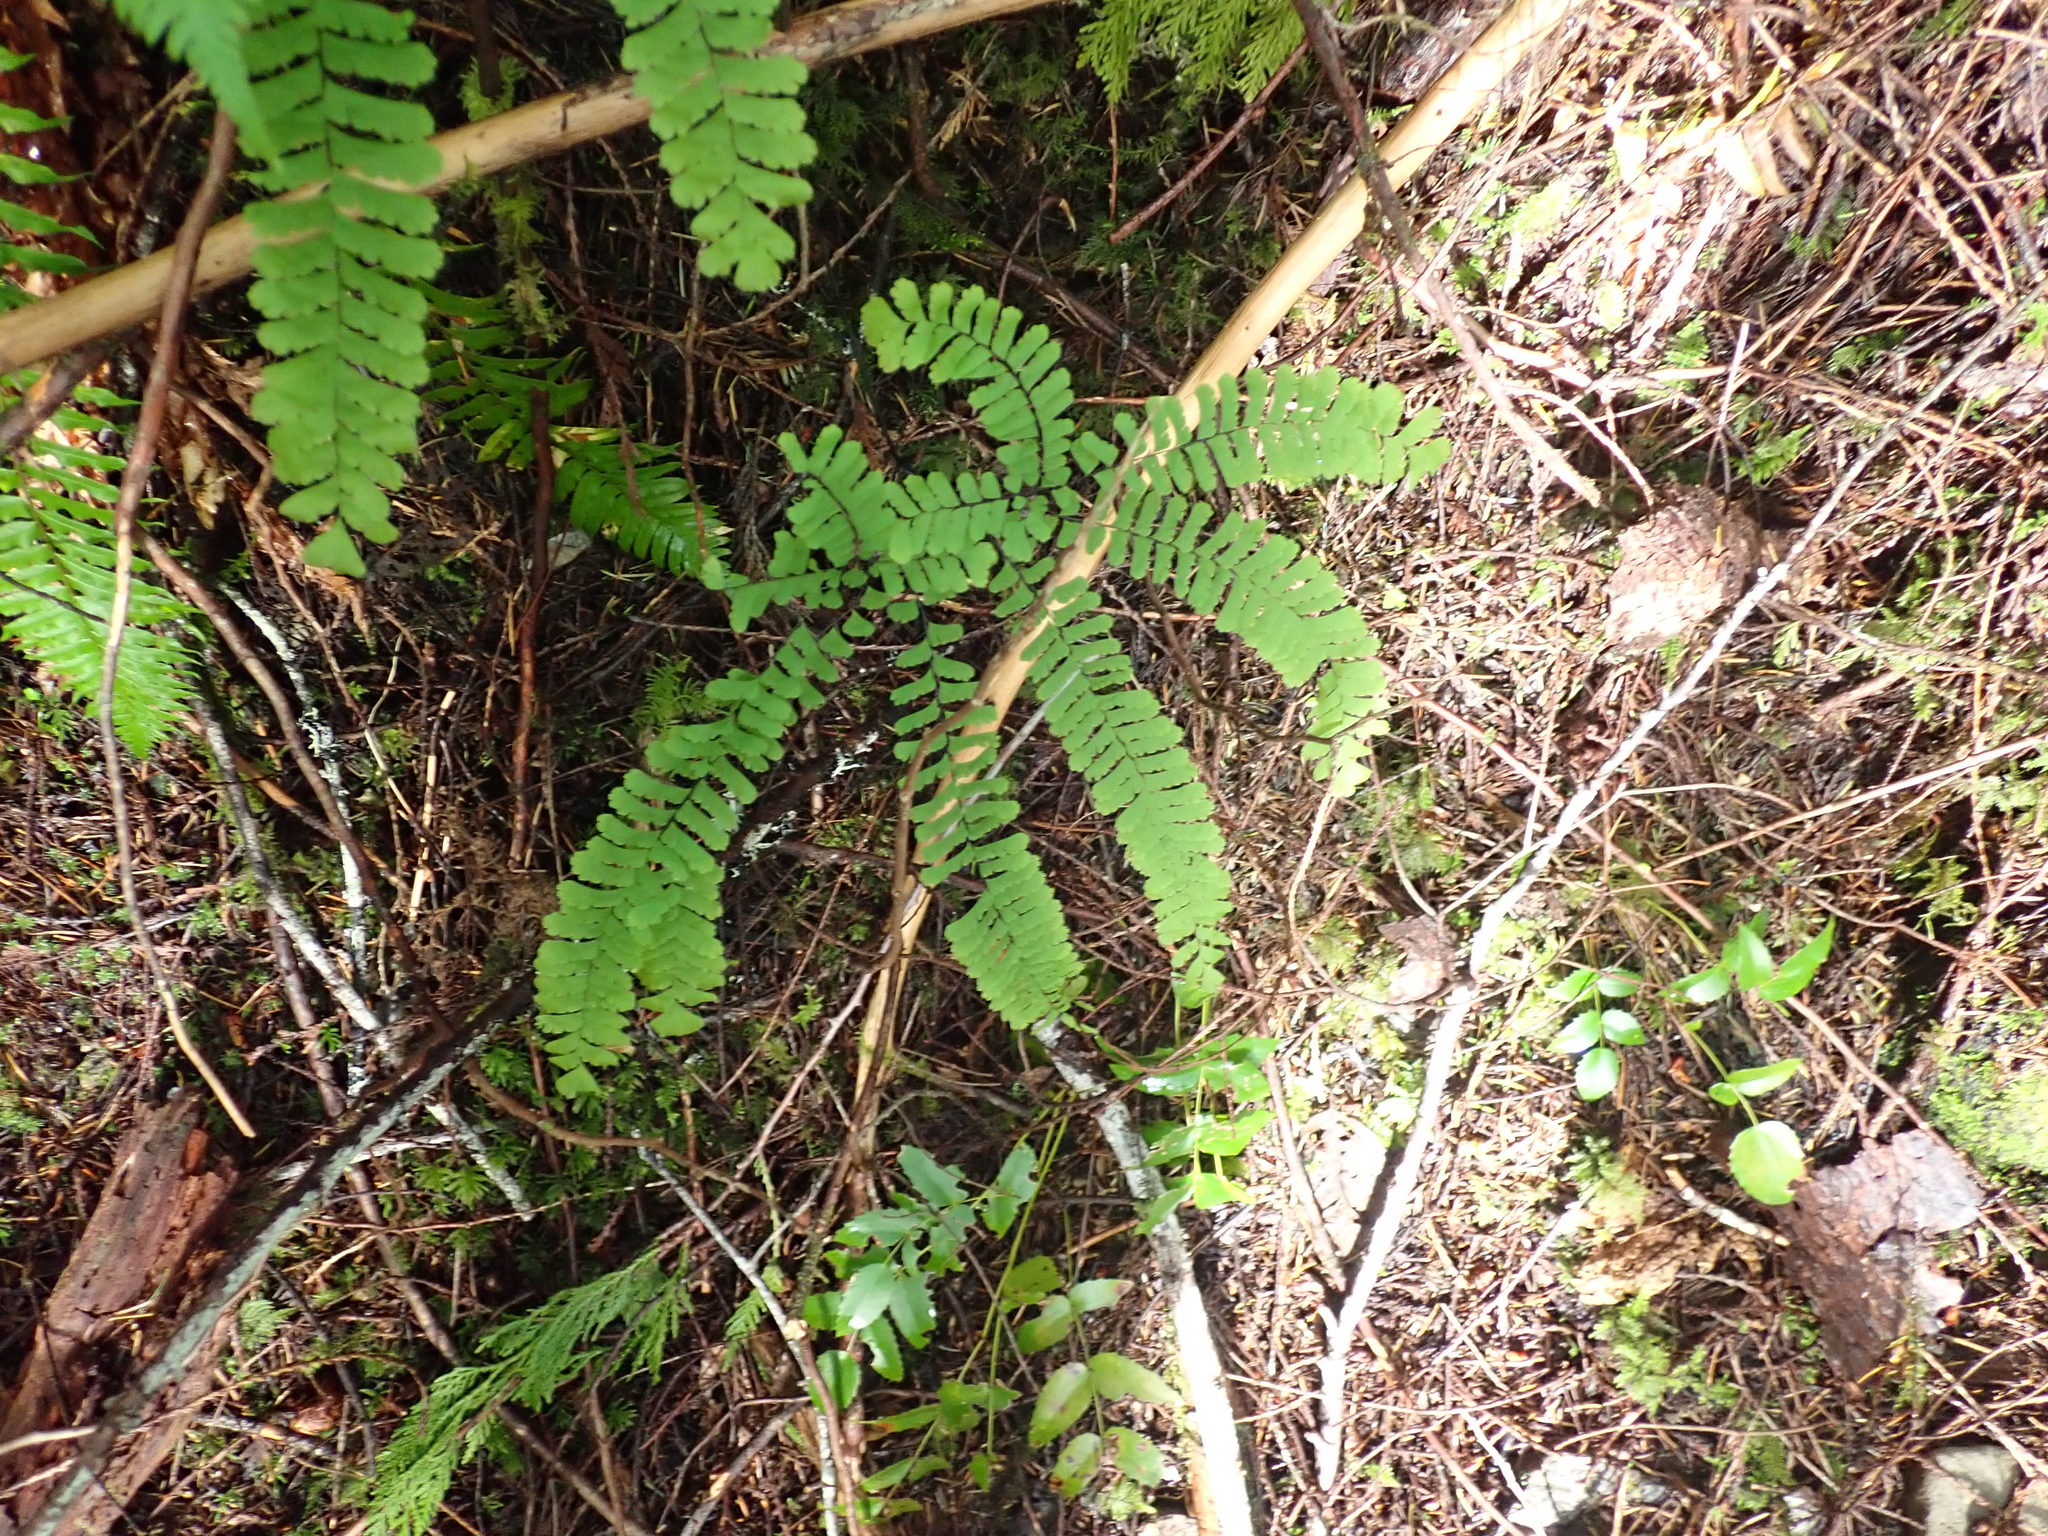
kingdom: Plantae
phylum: Tracheophyta
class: Polypodiopsida
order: Polypodiales
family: Pteridaceae
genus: Adiantum
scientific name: Adiantum aleuticum
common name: Aleutian maidenhair fern
